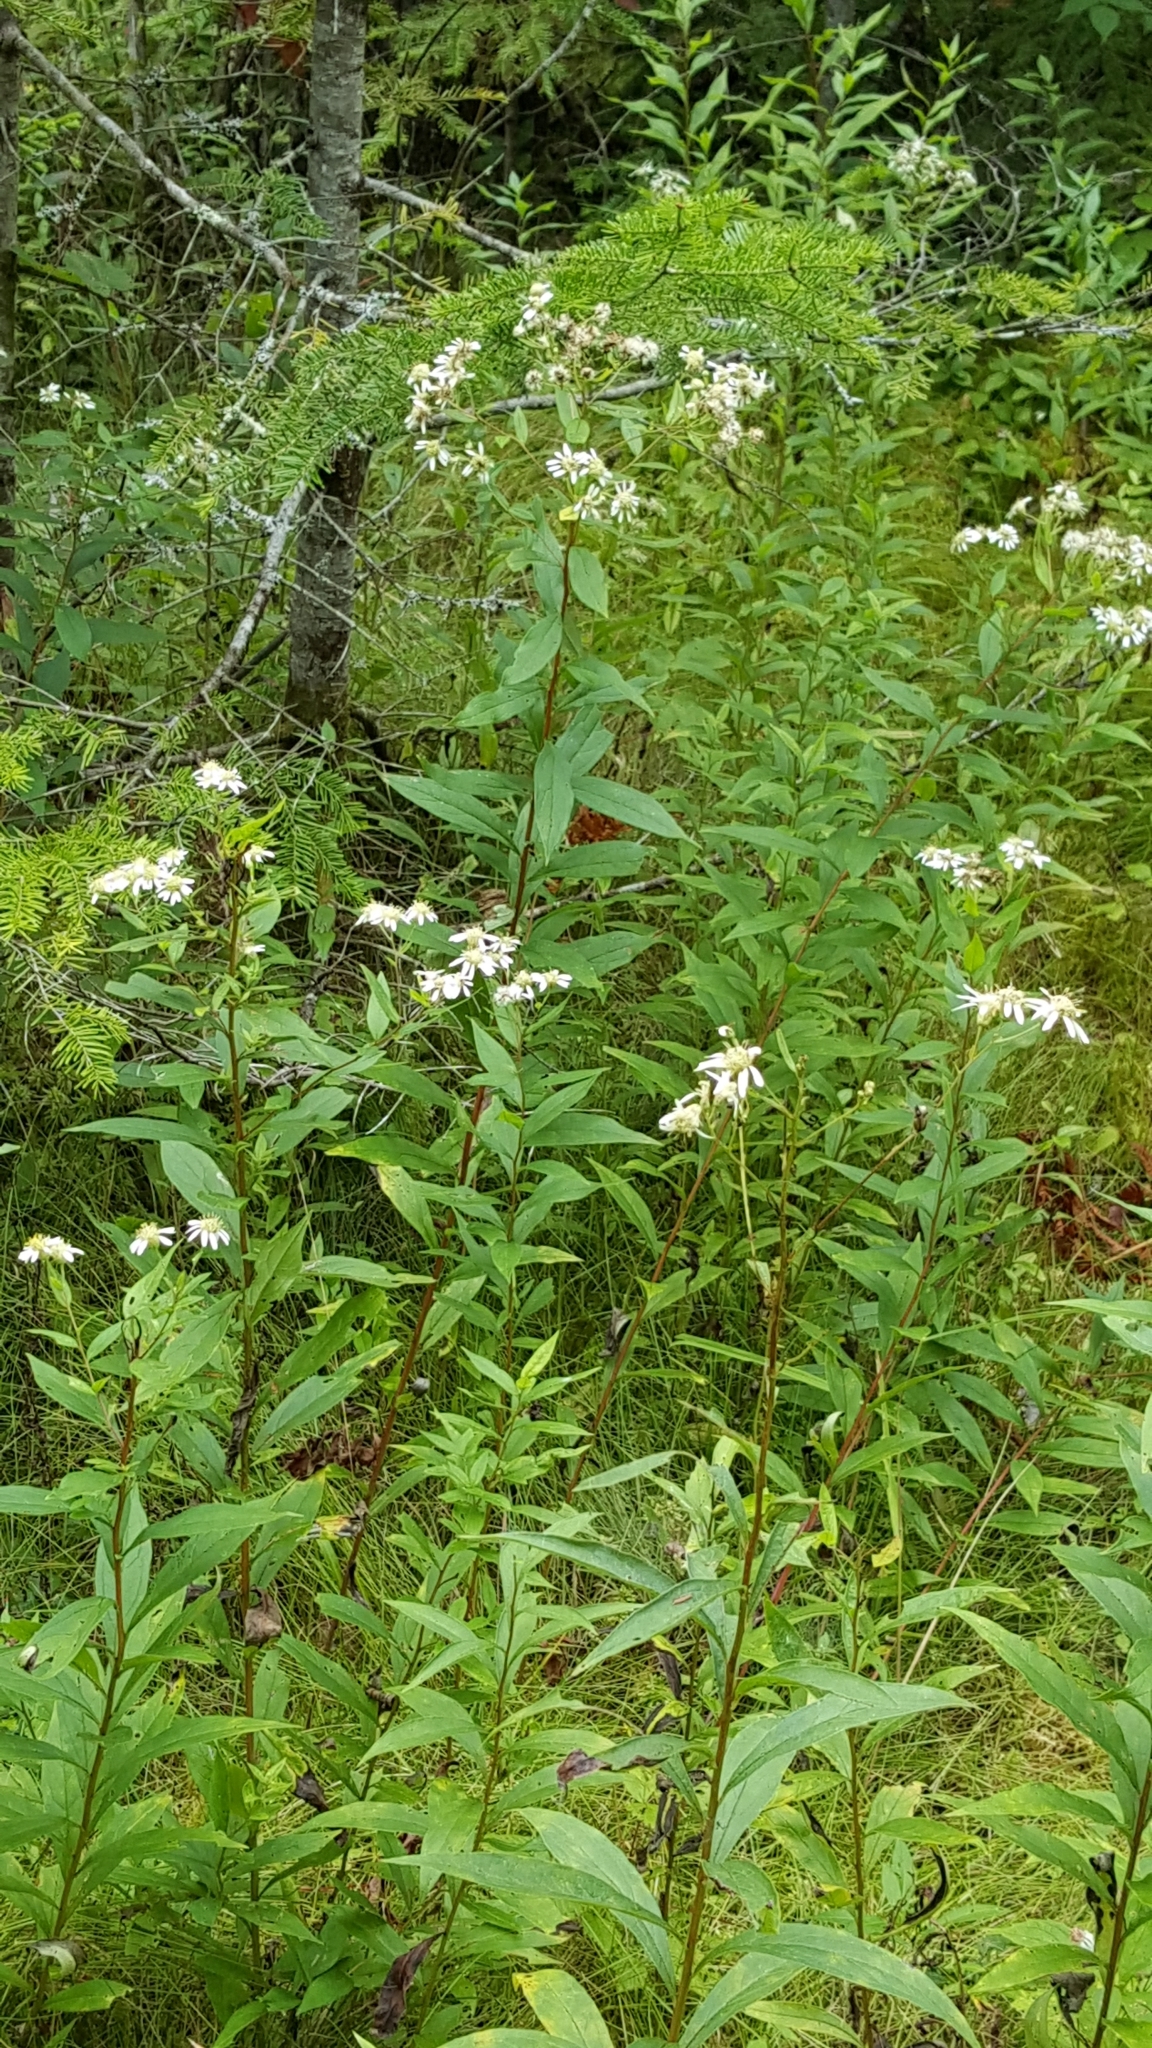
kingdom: Plantae
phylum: Tracheophyta
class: Magnoliopsida
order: Asterales
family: Asteraceae
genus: Doellingeria
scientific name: Doellingeria umbellata
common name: Flat-top white aster
